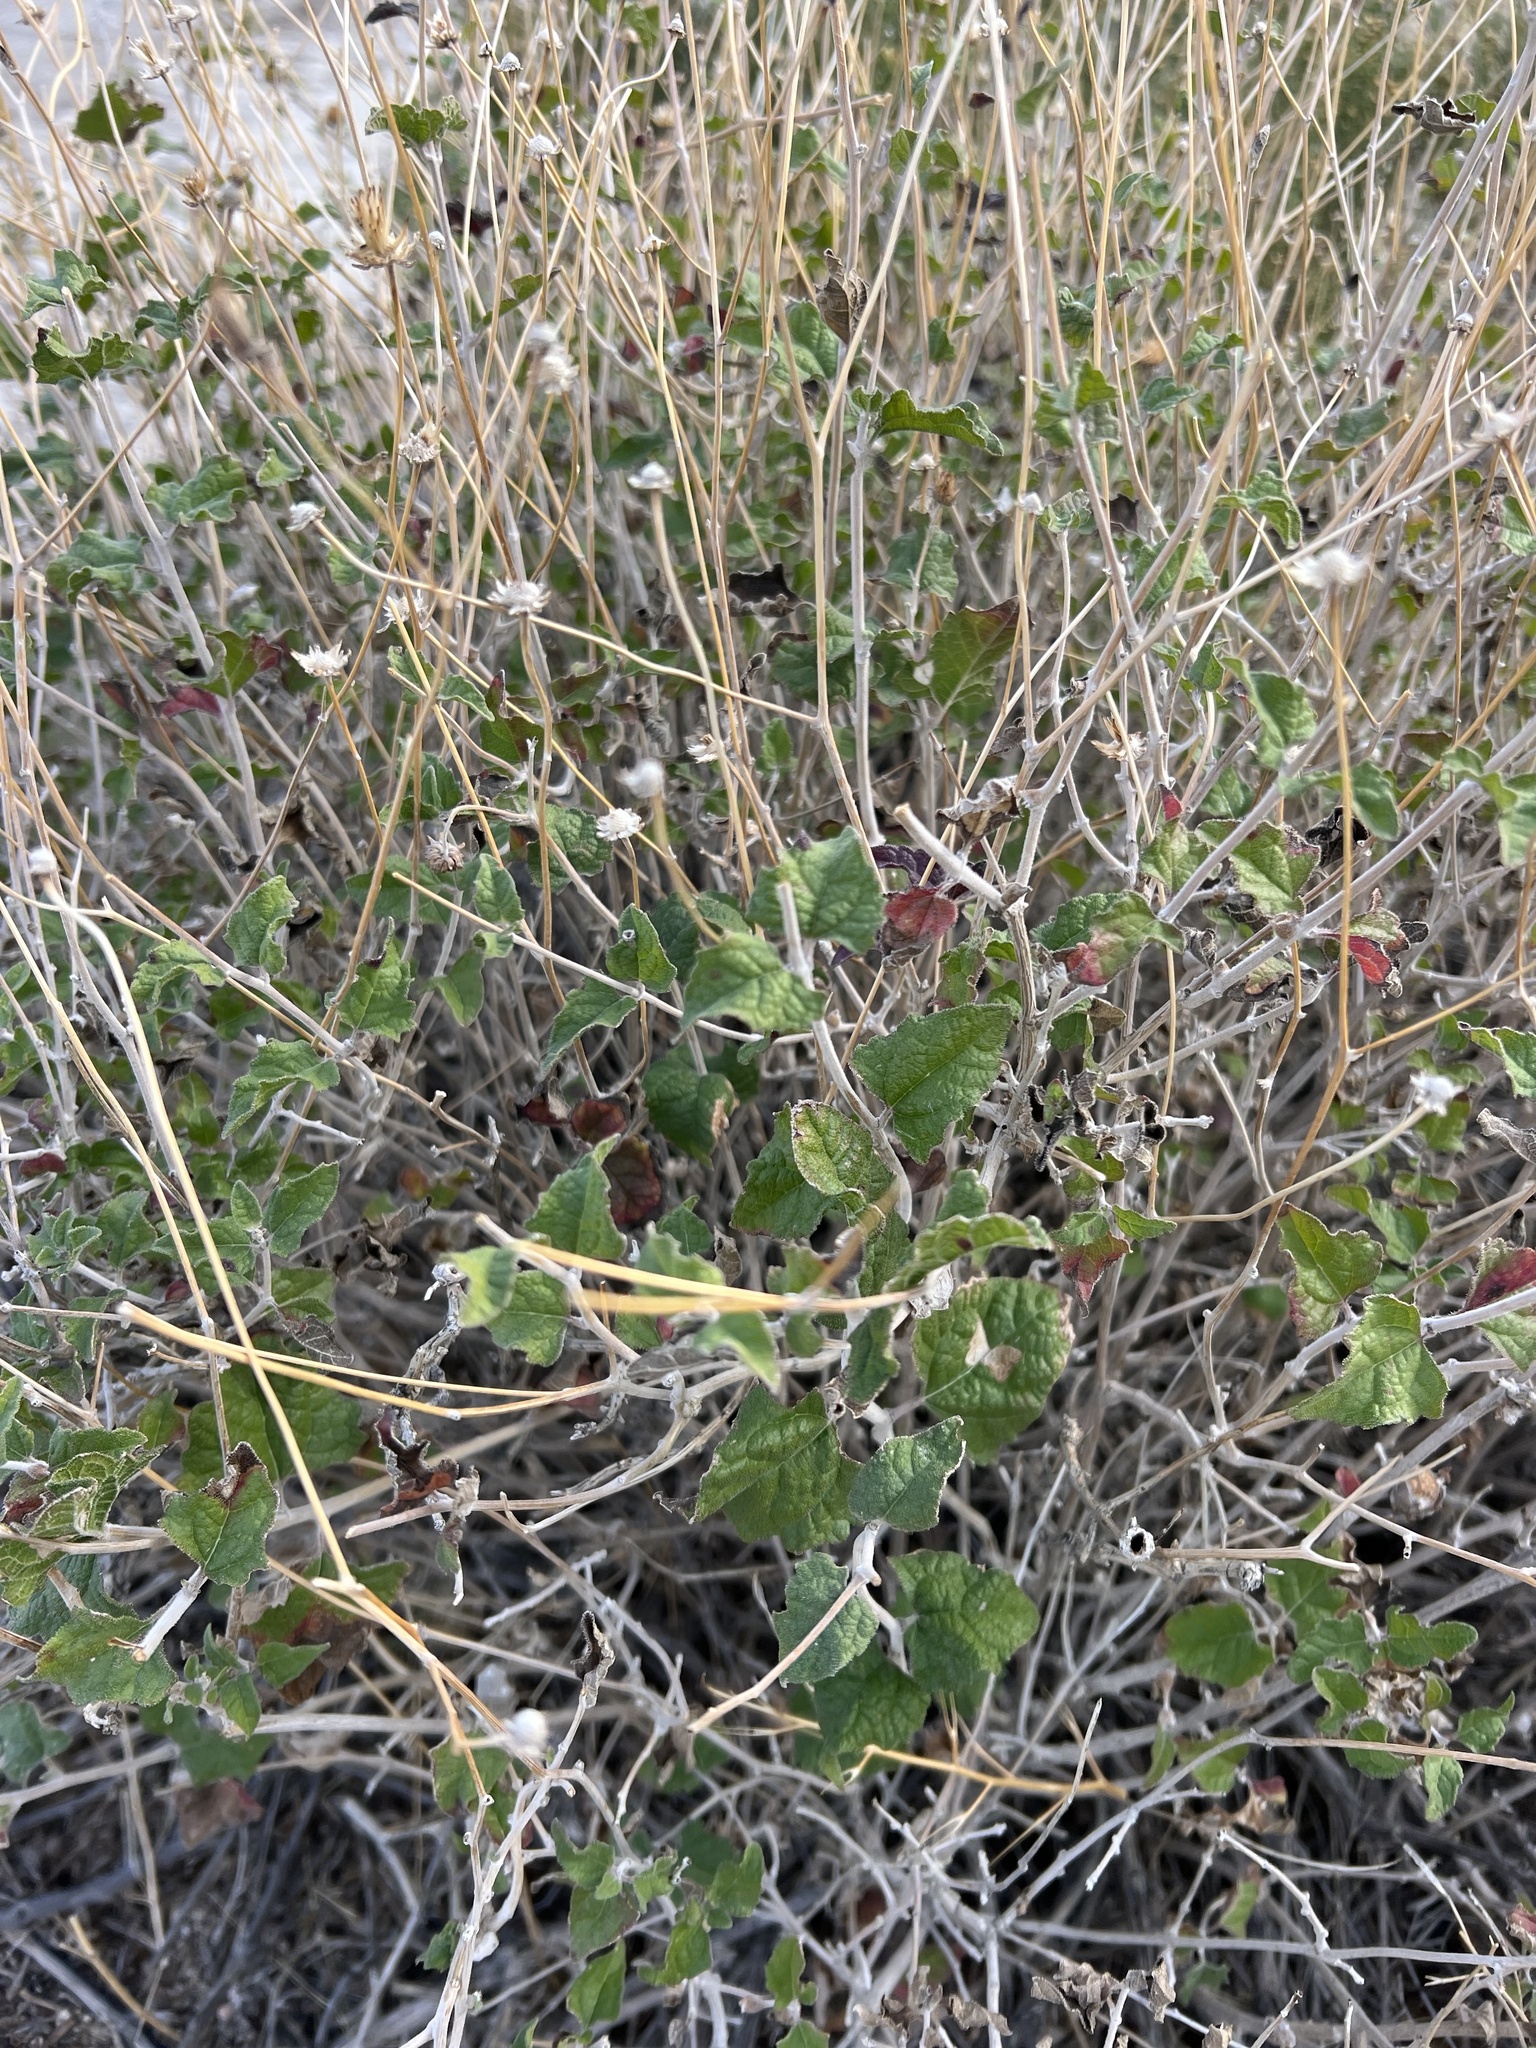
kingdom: Plantae
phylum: Tracheophyta
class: Magnoliopsida
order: Asterales
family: Asteraceae
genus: Bahiopsis
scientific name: Bahiopsis parishii
